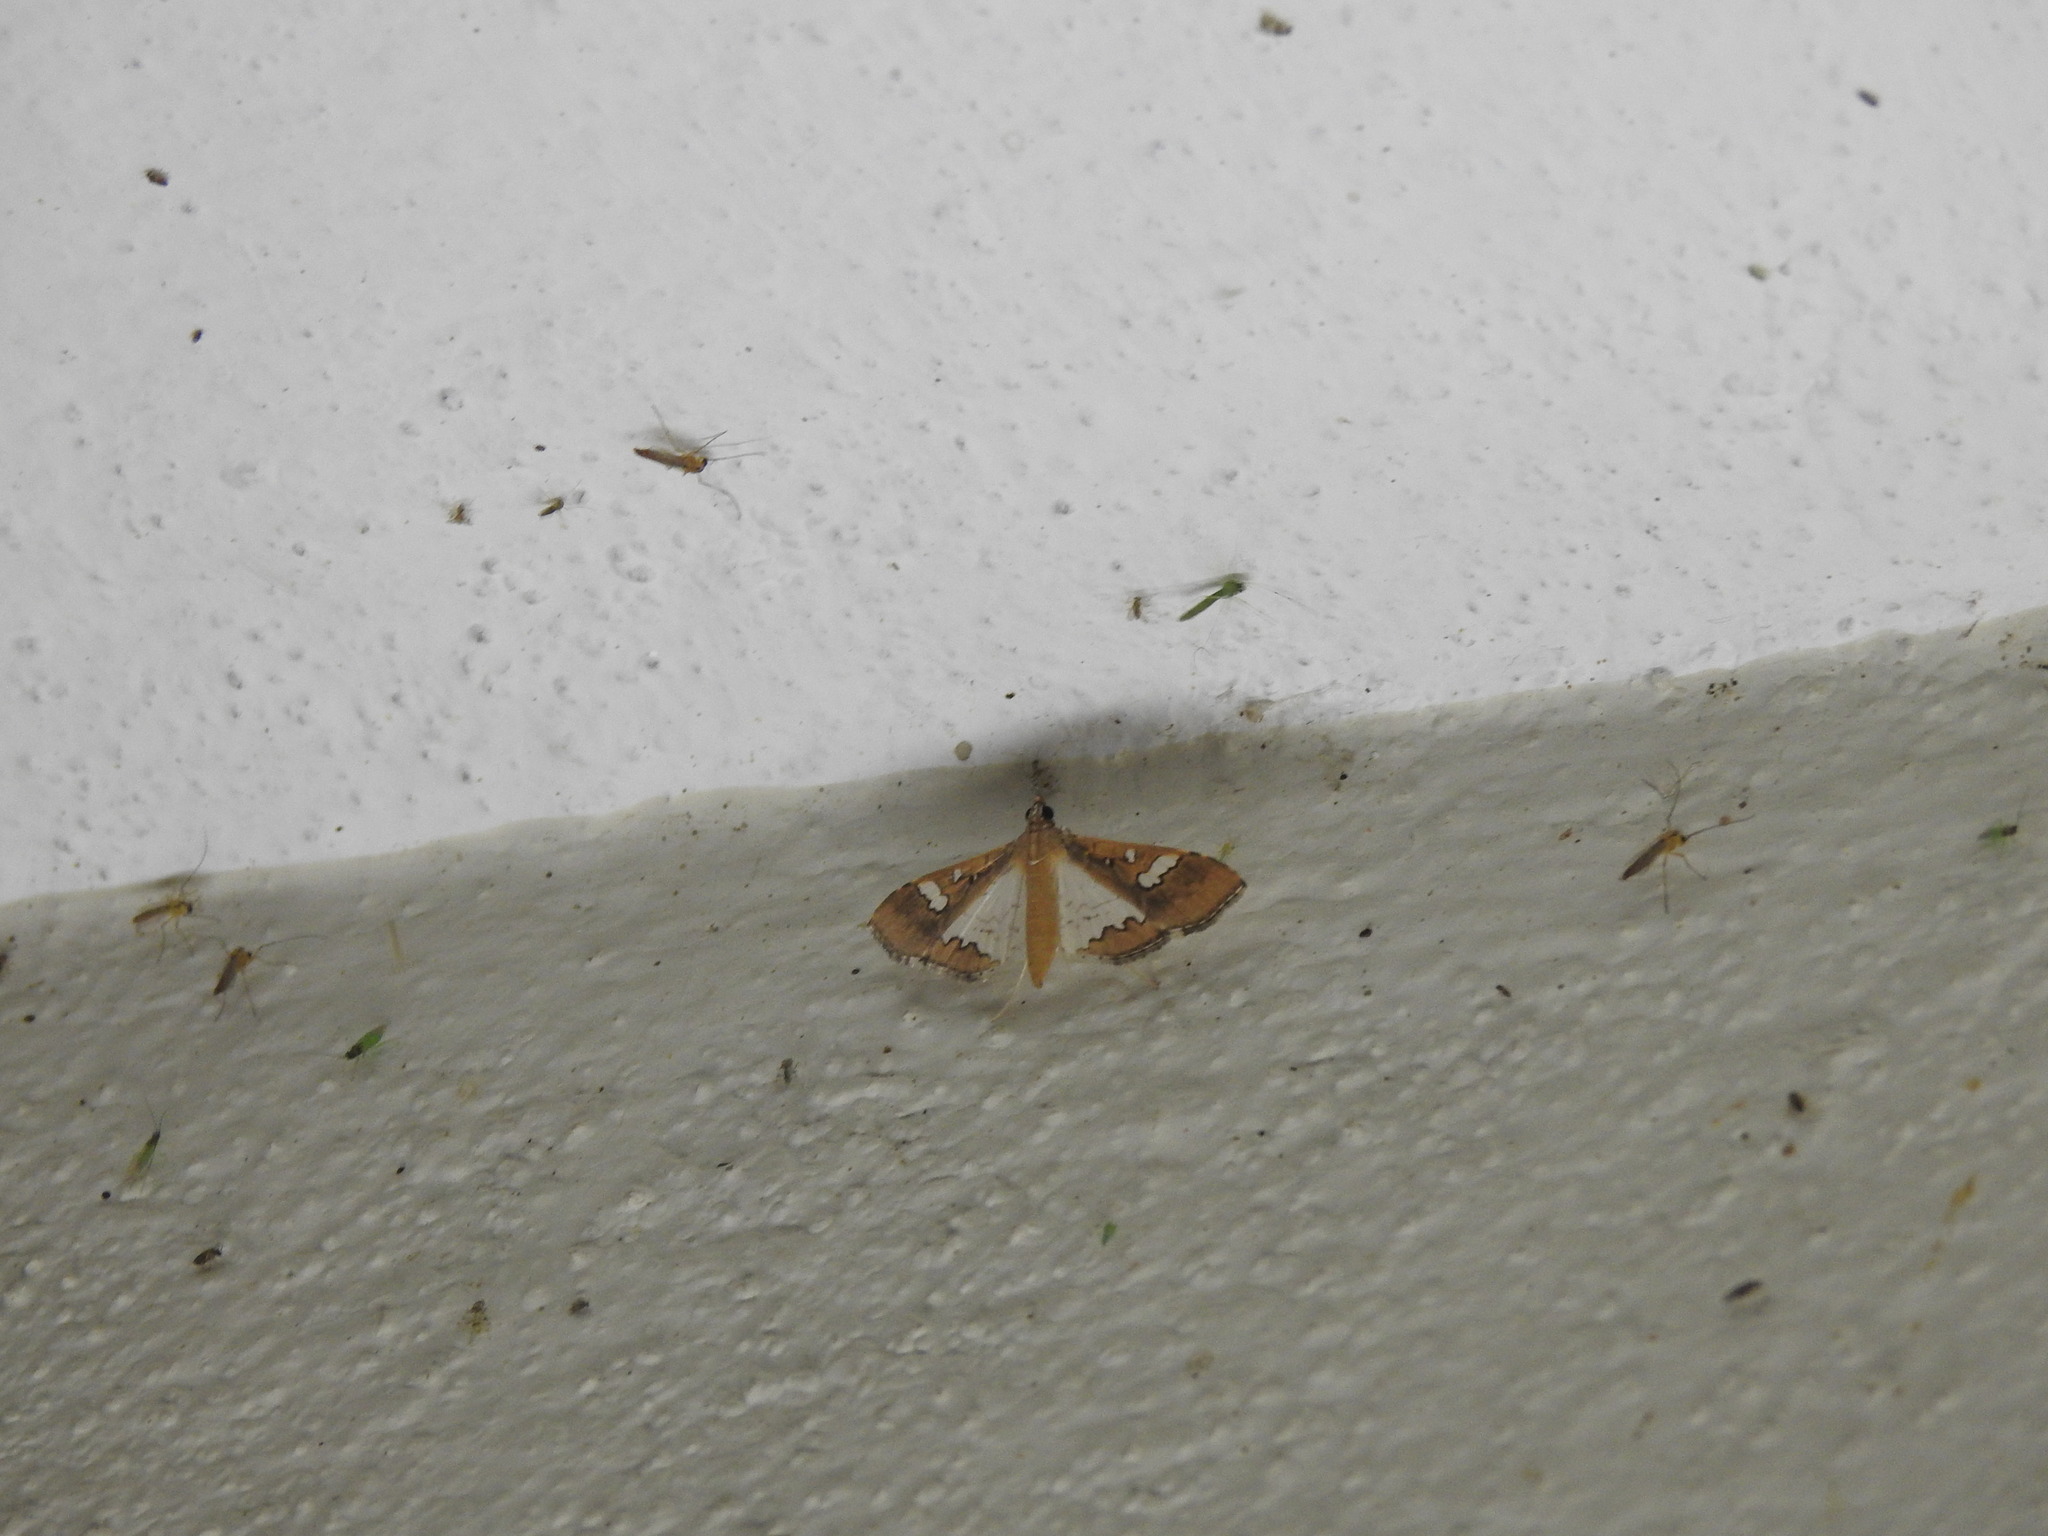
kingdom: Animalia
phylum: Arthropoda
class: Insecta
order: Lepidoptera
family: Crambidae
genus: Maruca
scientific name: Maruca vitrata
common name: Maruca pod borer
